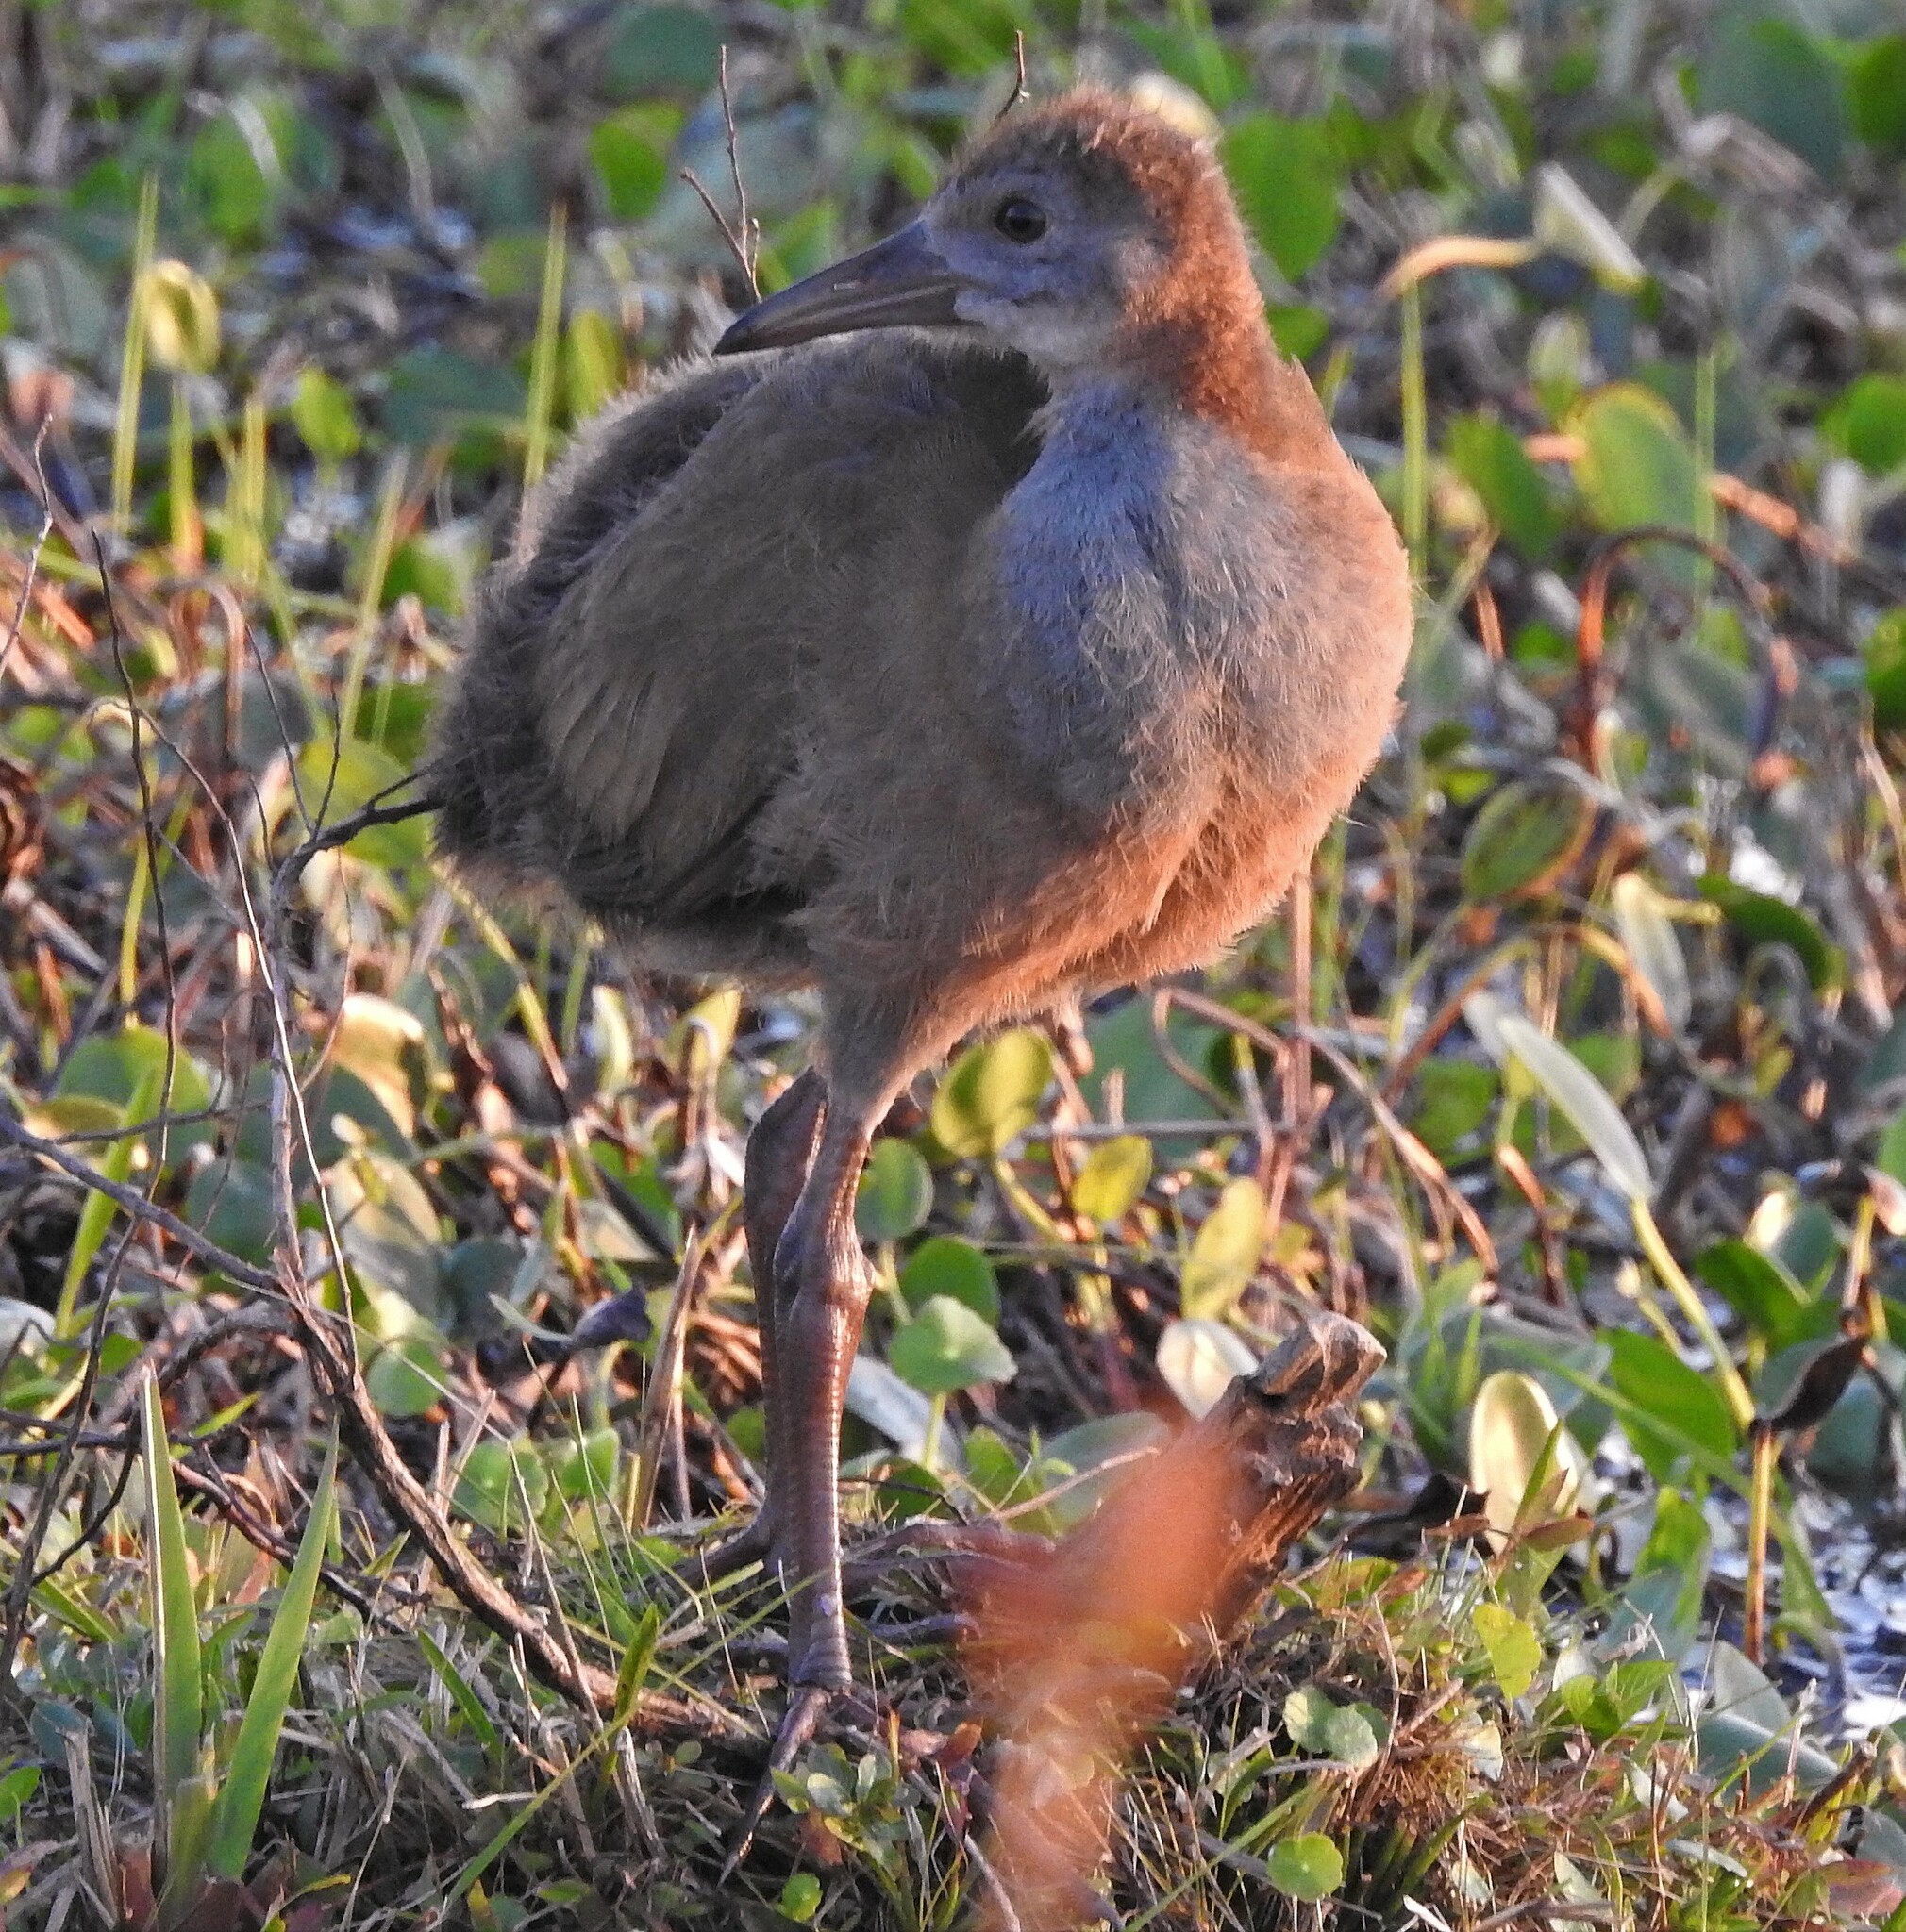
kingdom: Animalia
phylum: Chordata
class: Aves
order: Gruiformes
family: Rallidae
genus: Aramides
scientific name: Aramides ypecaha
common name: Giant wood rail
